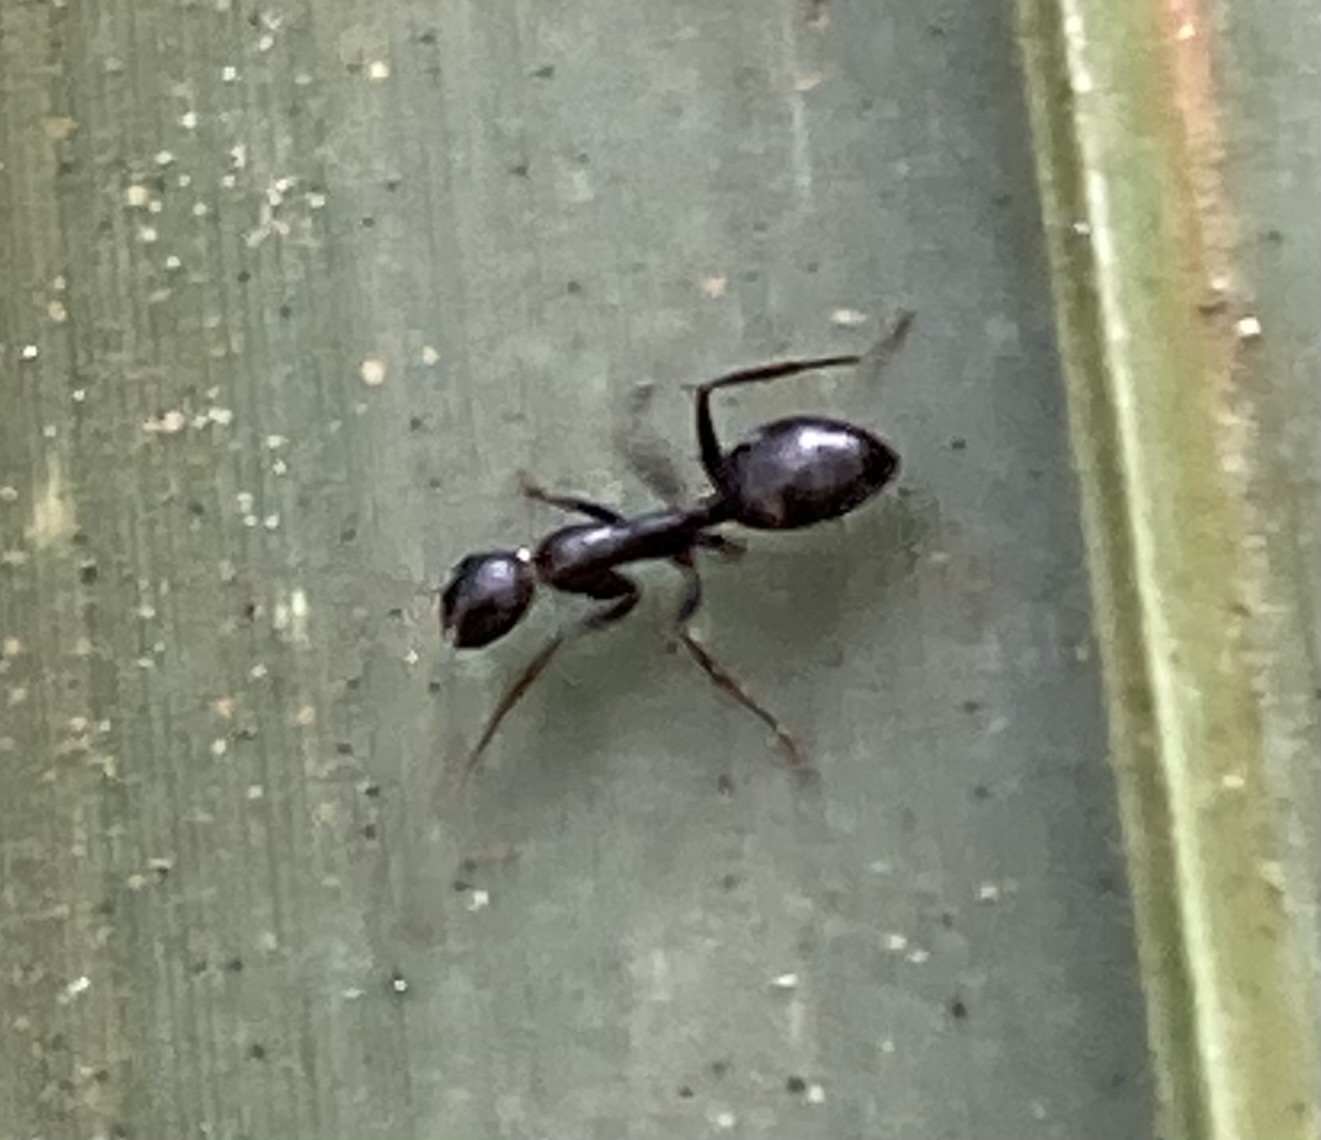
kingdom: Animalia
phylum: Arthropoda
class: Insecta
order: Hymenoptera
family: Formicidae
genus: Camponotus
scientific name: Camponotus sexguttatus
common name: Neotropical carpenter ant
